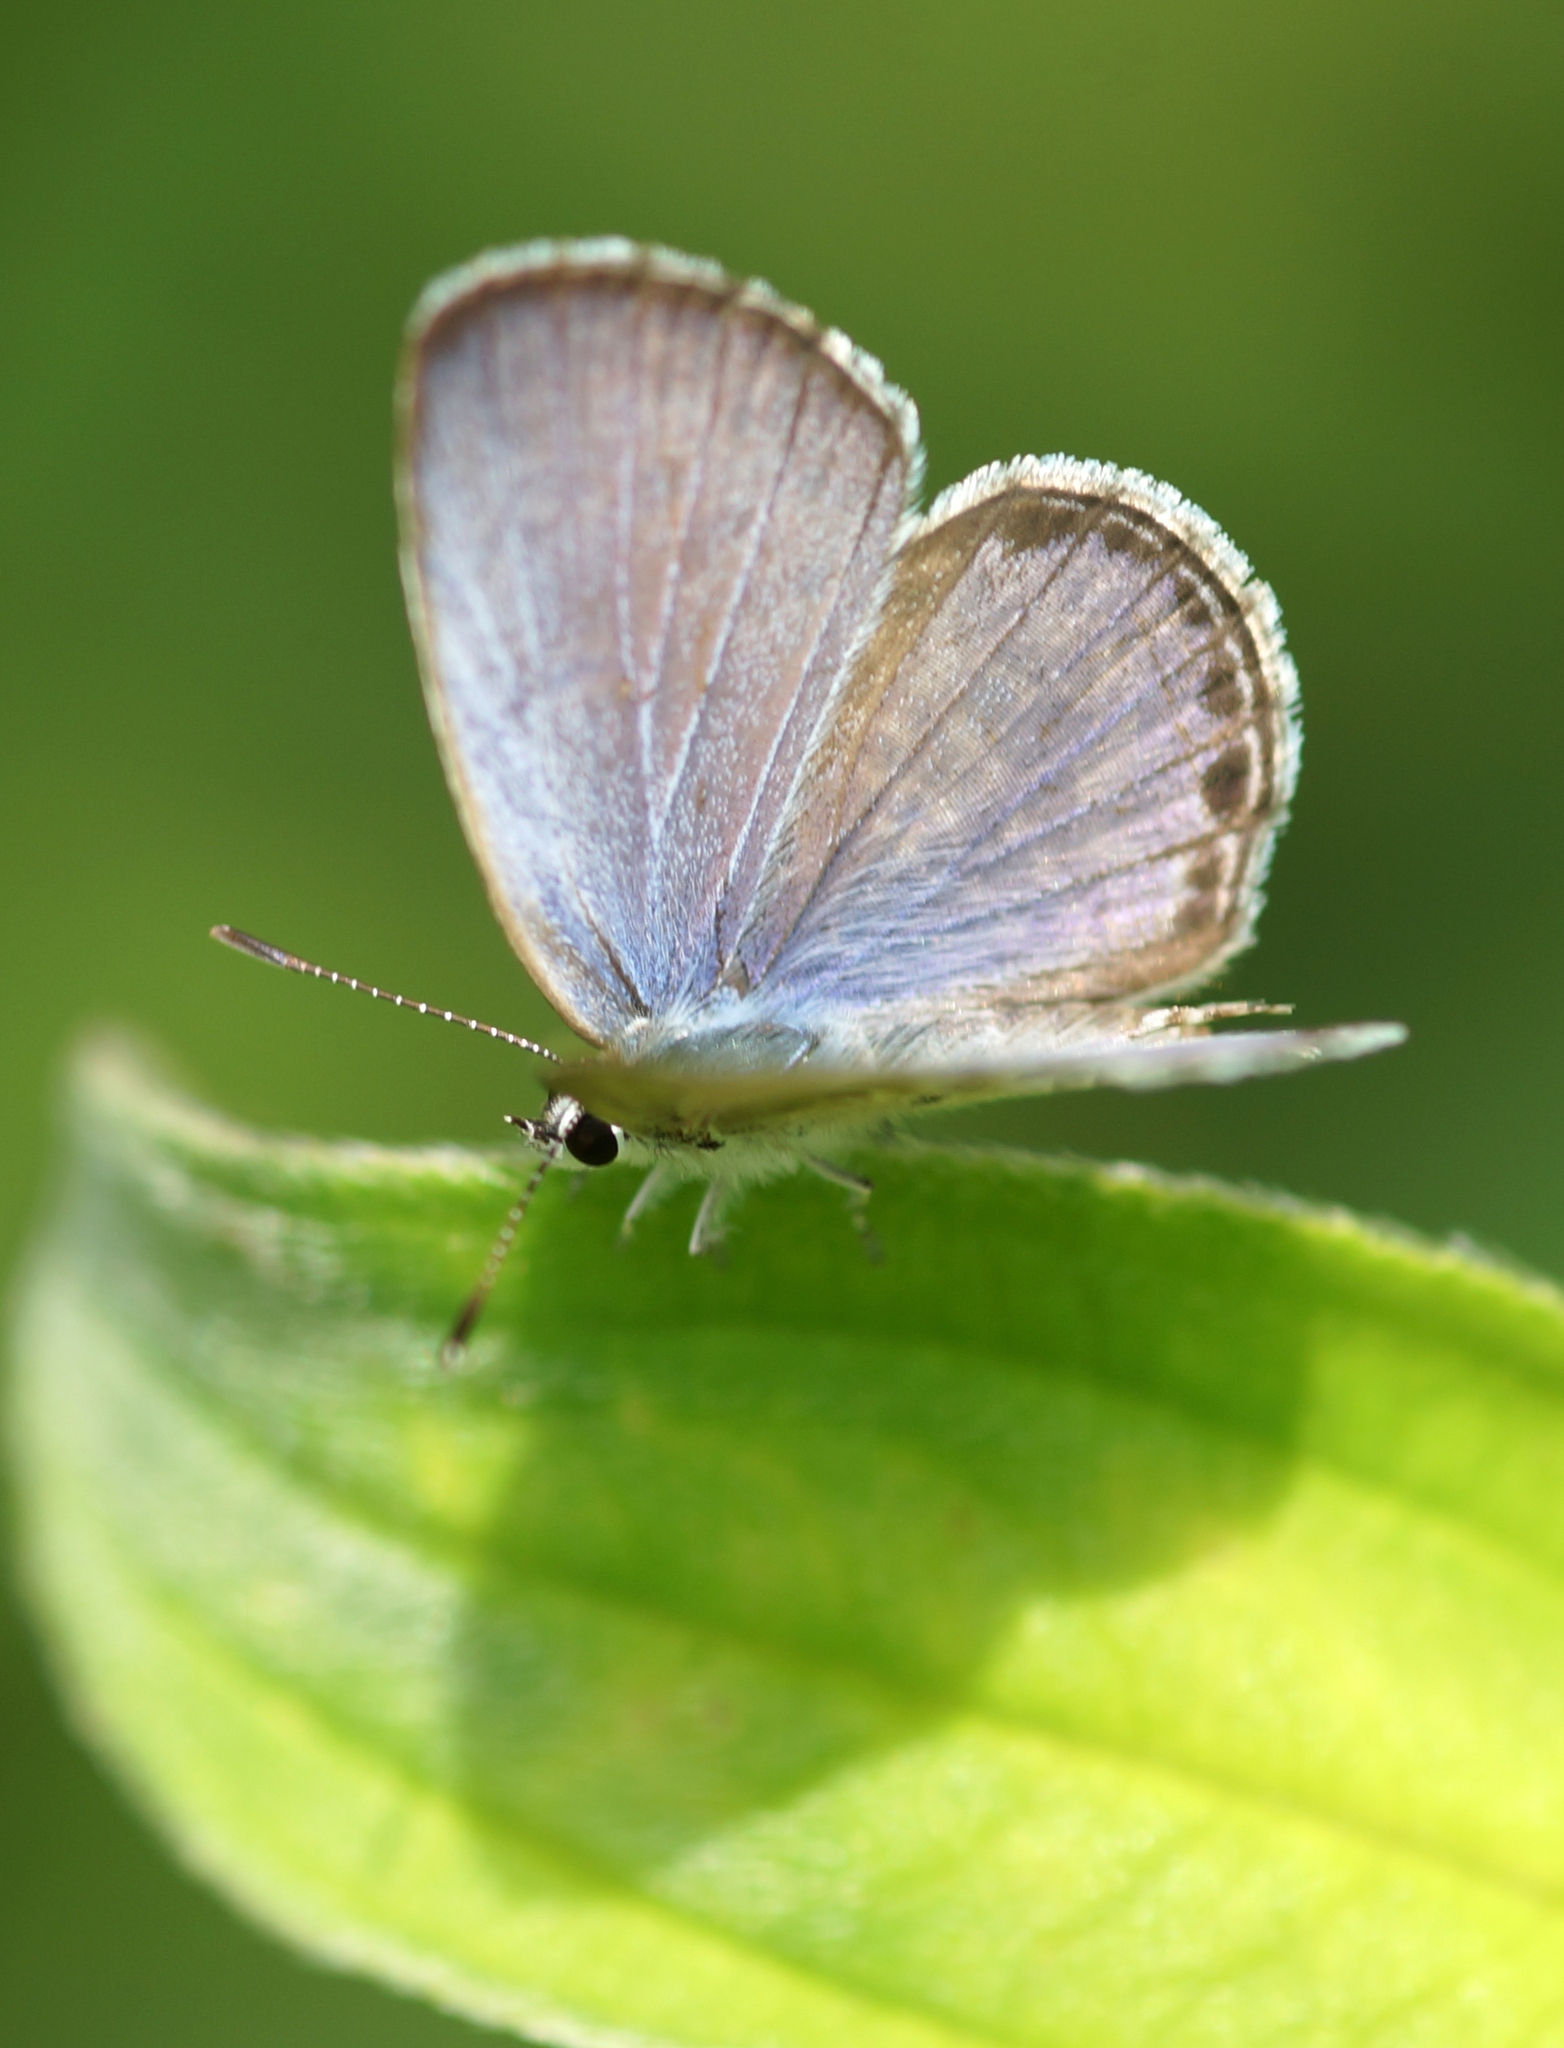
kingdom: Animalia
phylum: Arthropoda
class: Insecta
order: Lepidoptera
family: Lycaenidae
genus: Chilades
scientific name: Chilades laius
